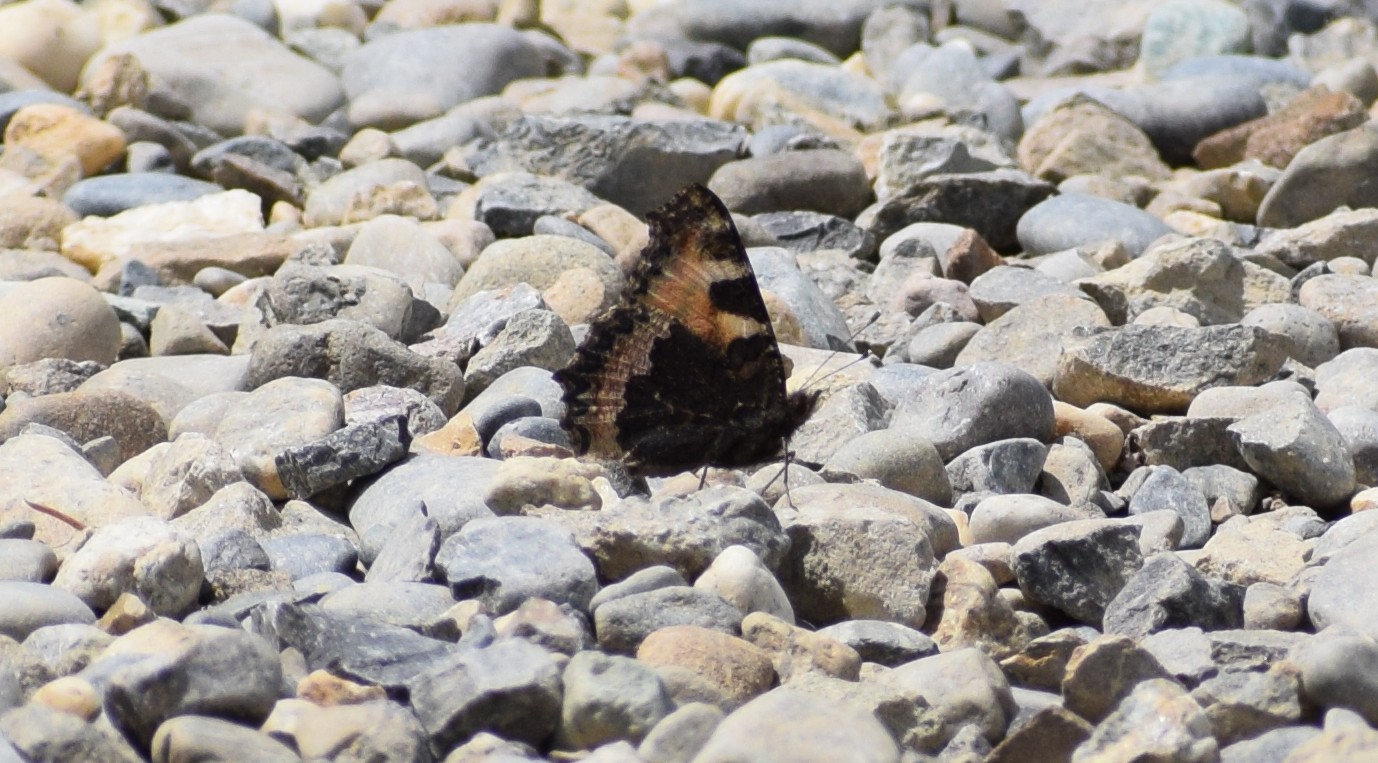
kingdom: Animalia
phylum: Arthropoda
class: Insecta
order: Lepidoptera
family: Nymphalidae
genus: Aglais
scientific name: Aglais urticae
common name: Small tortoiseshell
